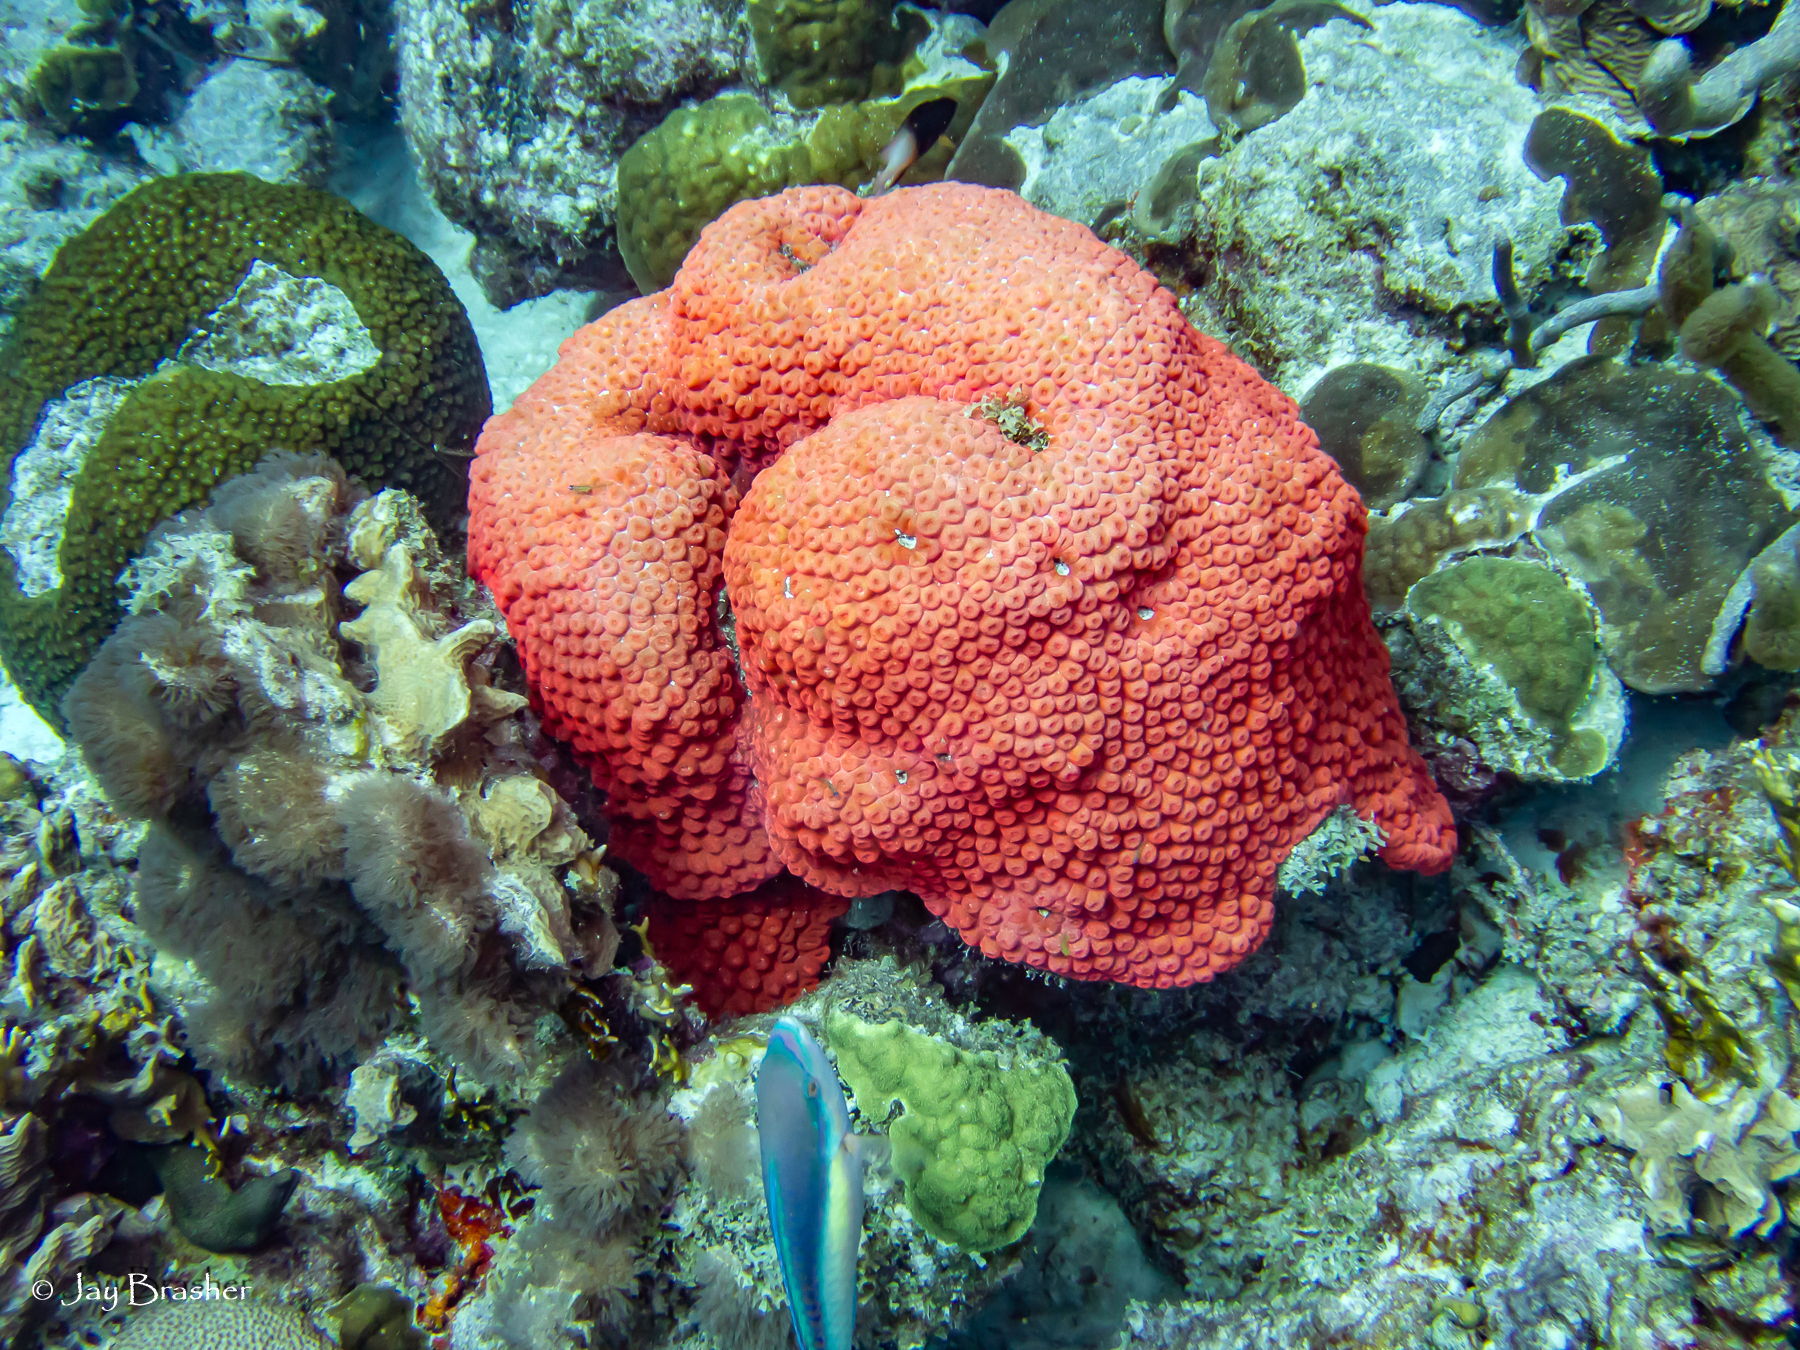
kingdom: Animalia
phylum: Cnidaria
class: Anthozoa
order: Scleractinia
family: Montastraeidae
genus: Montastraea
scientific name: Montastraea cavernosa
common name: Great star coral
